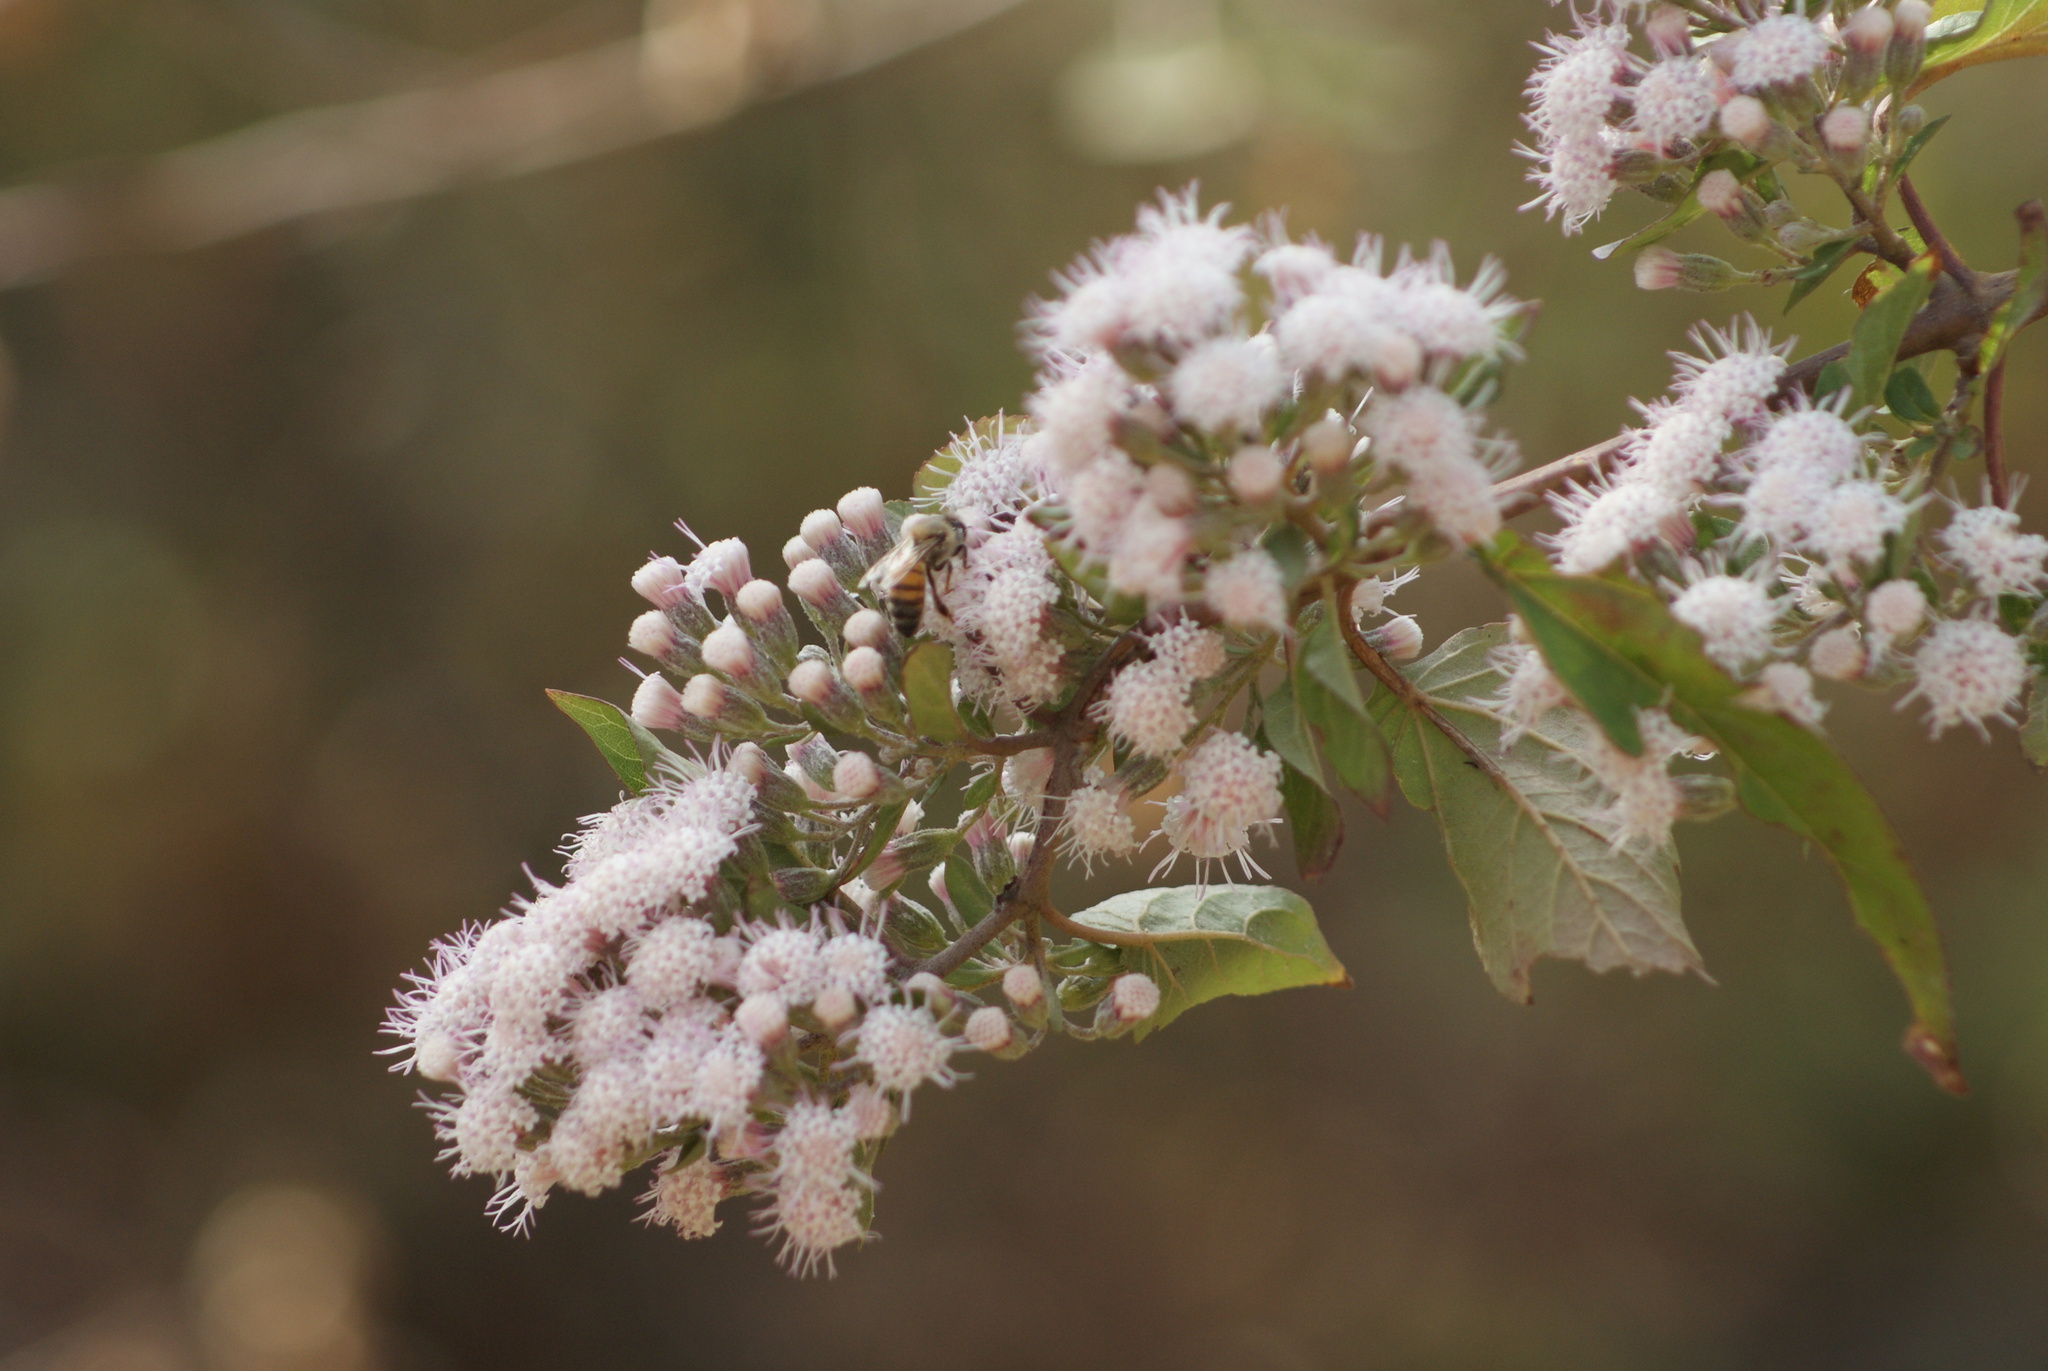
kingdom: Animalia
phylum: Arthropoda
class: Insecta
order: Hymenoptera
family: Apidae
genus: Apis
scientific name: Apis mellifera
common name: Honey bee
